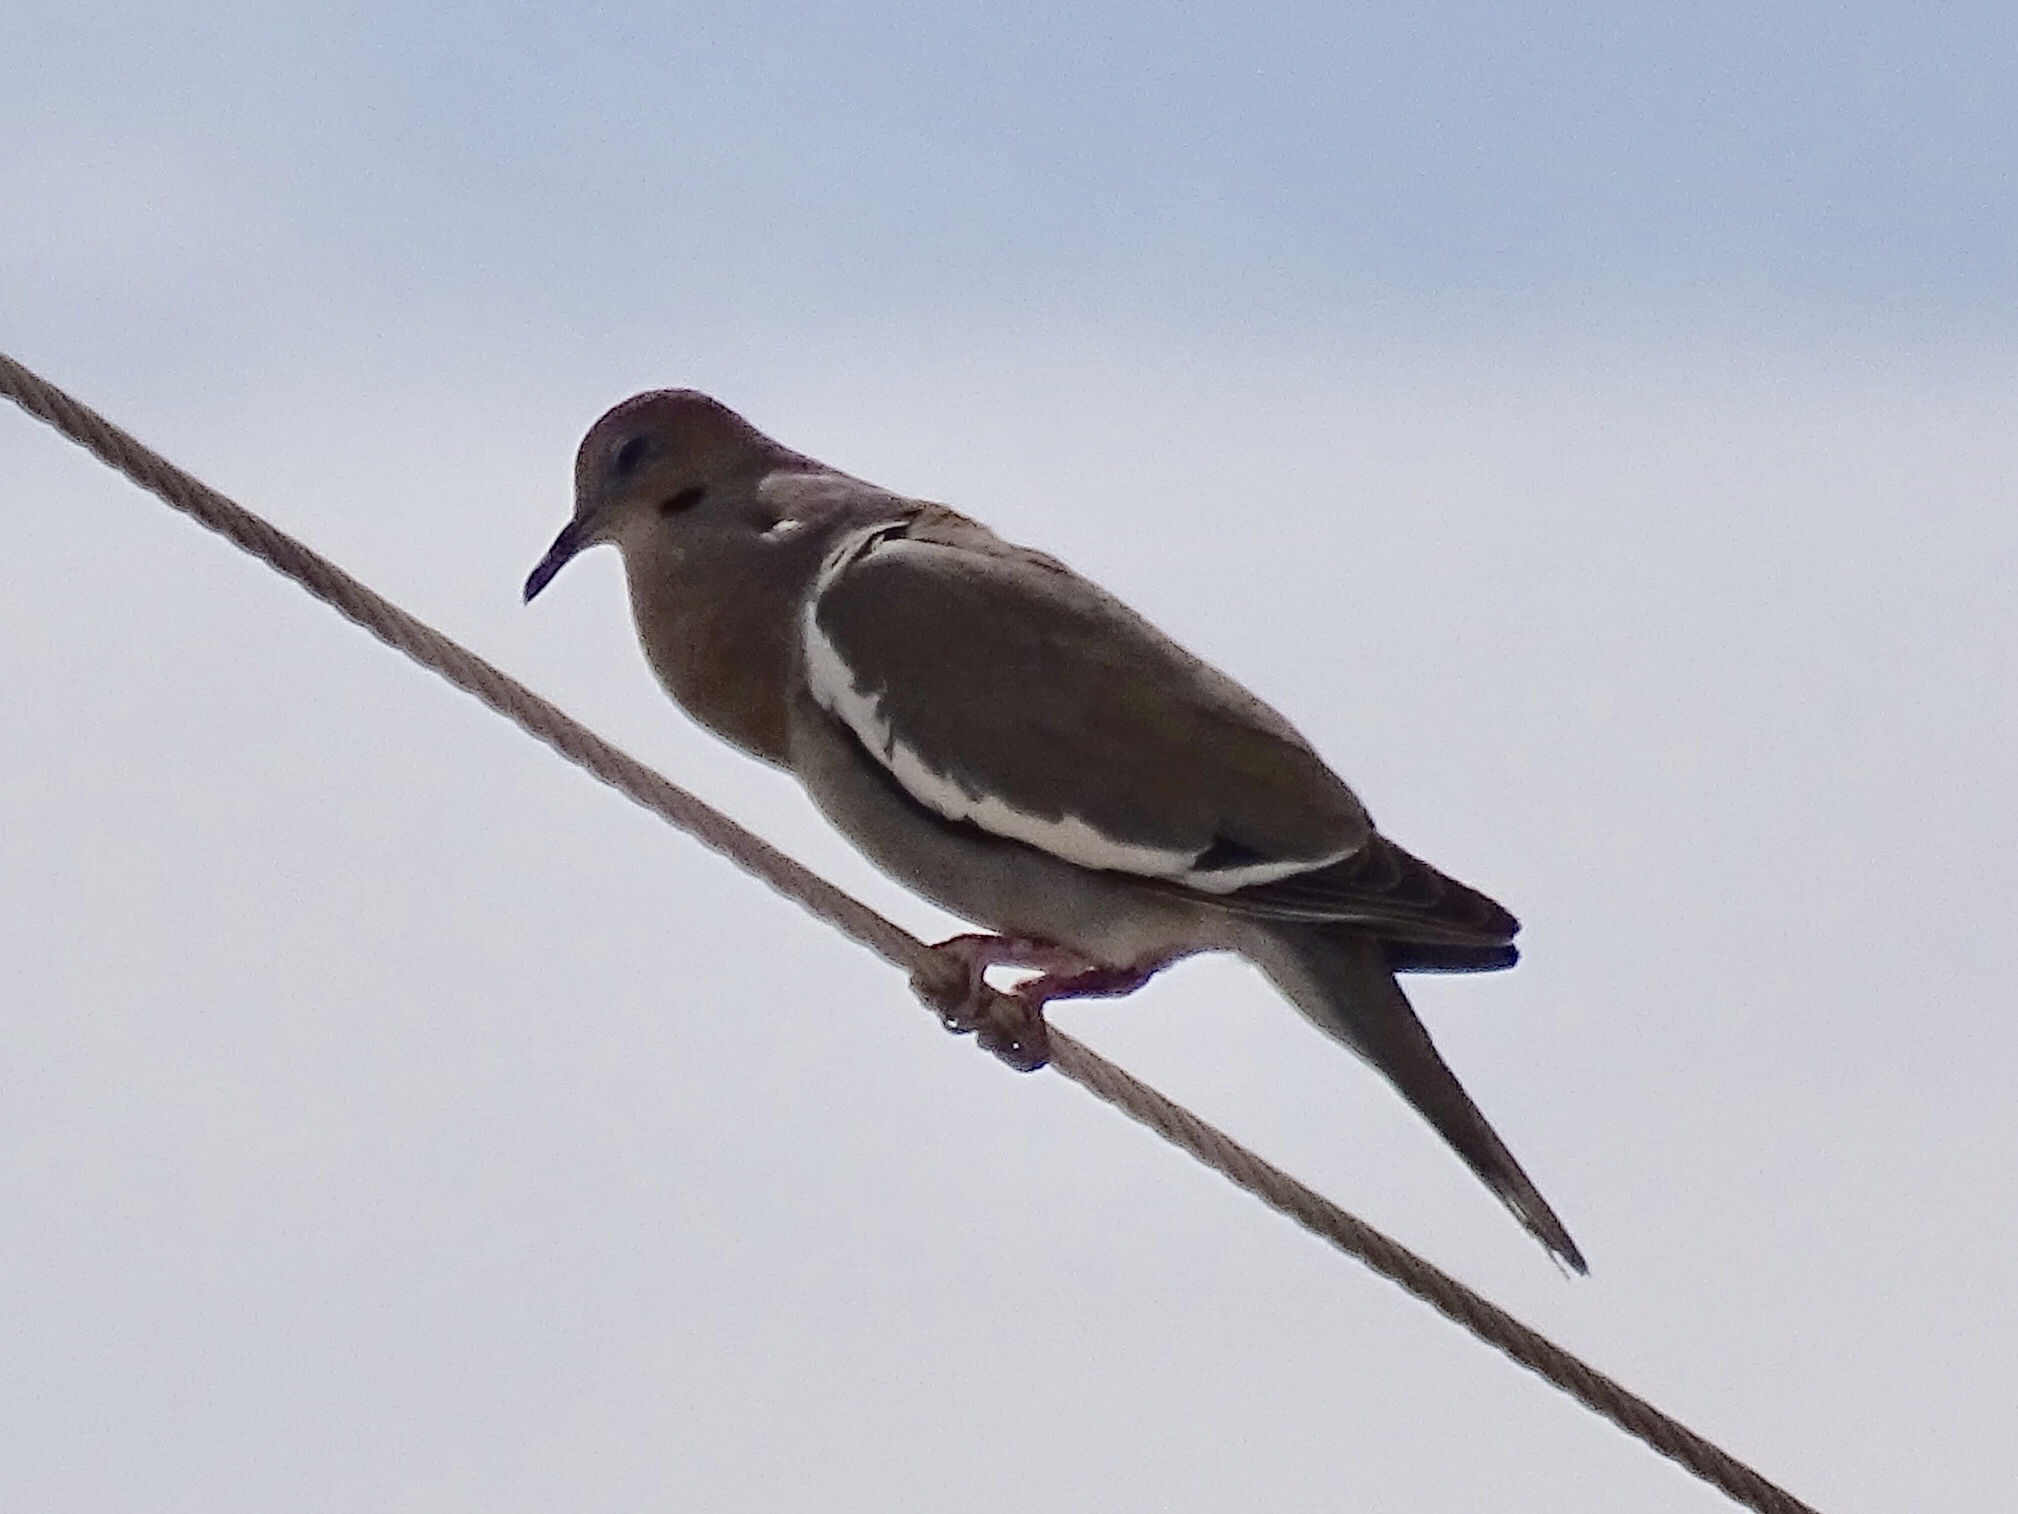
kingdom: Animalia
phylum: Chordata
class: Aves
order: Columbiformes
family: Columbidae
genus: Zenaida
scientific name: Zenaida asiatica
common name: White-winged dove
